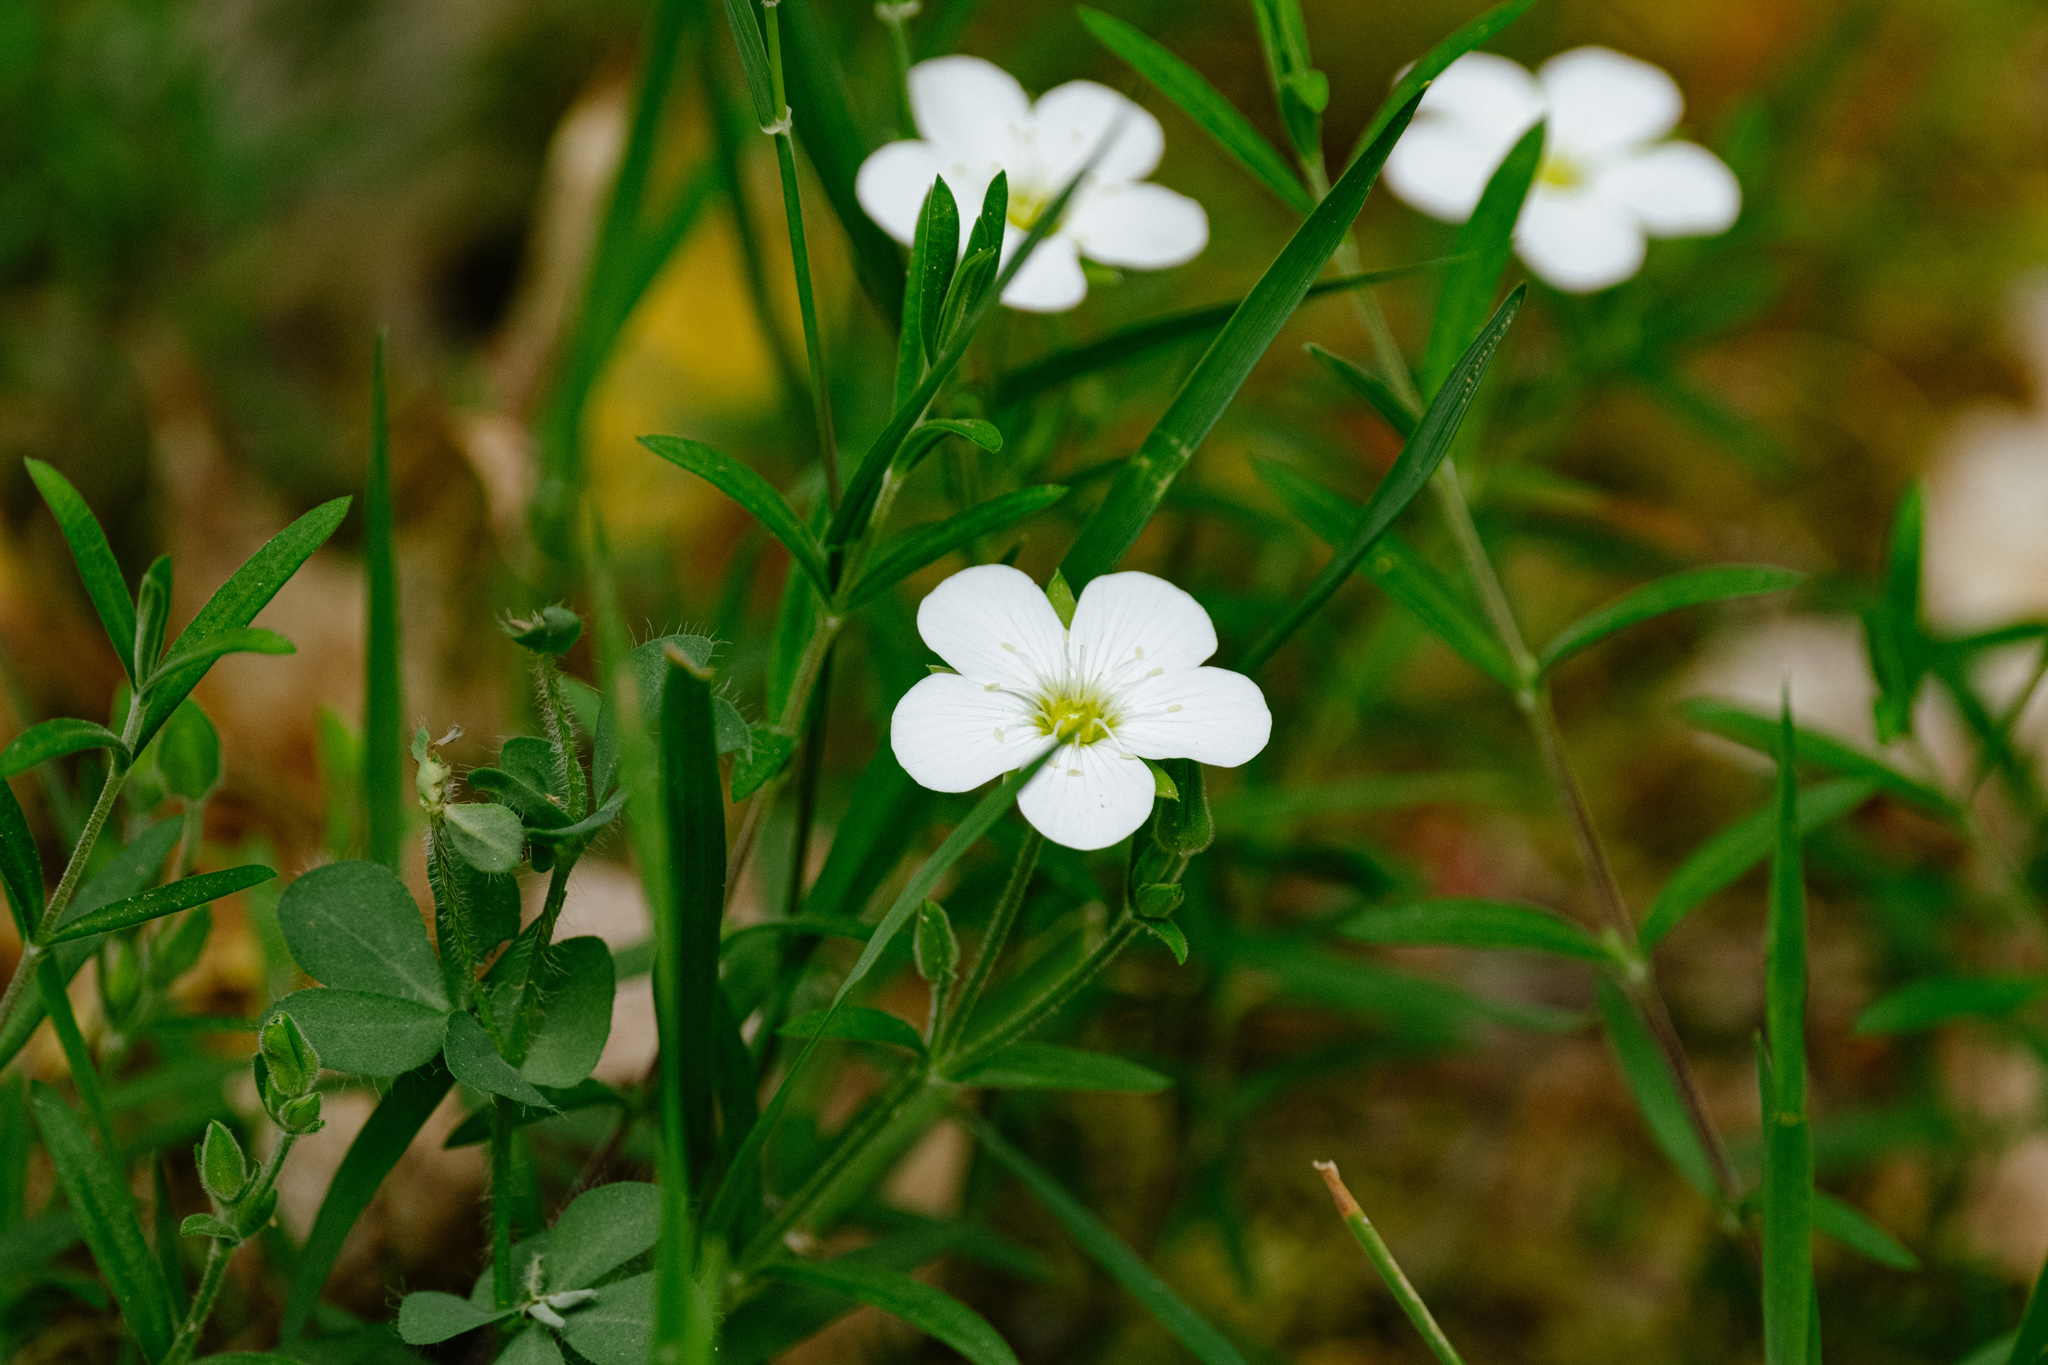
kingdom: Plantae
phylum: Tracheophyta
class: Magnoliopsida
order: Caryophyllales
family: Caryophyllaceae
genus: Arenaria
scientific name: Arenaria montana
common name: Mountain sandwort
